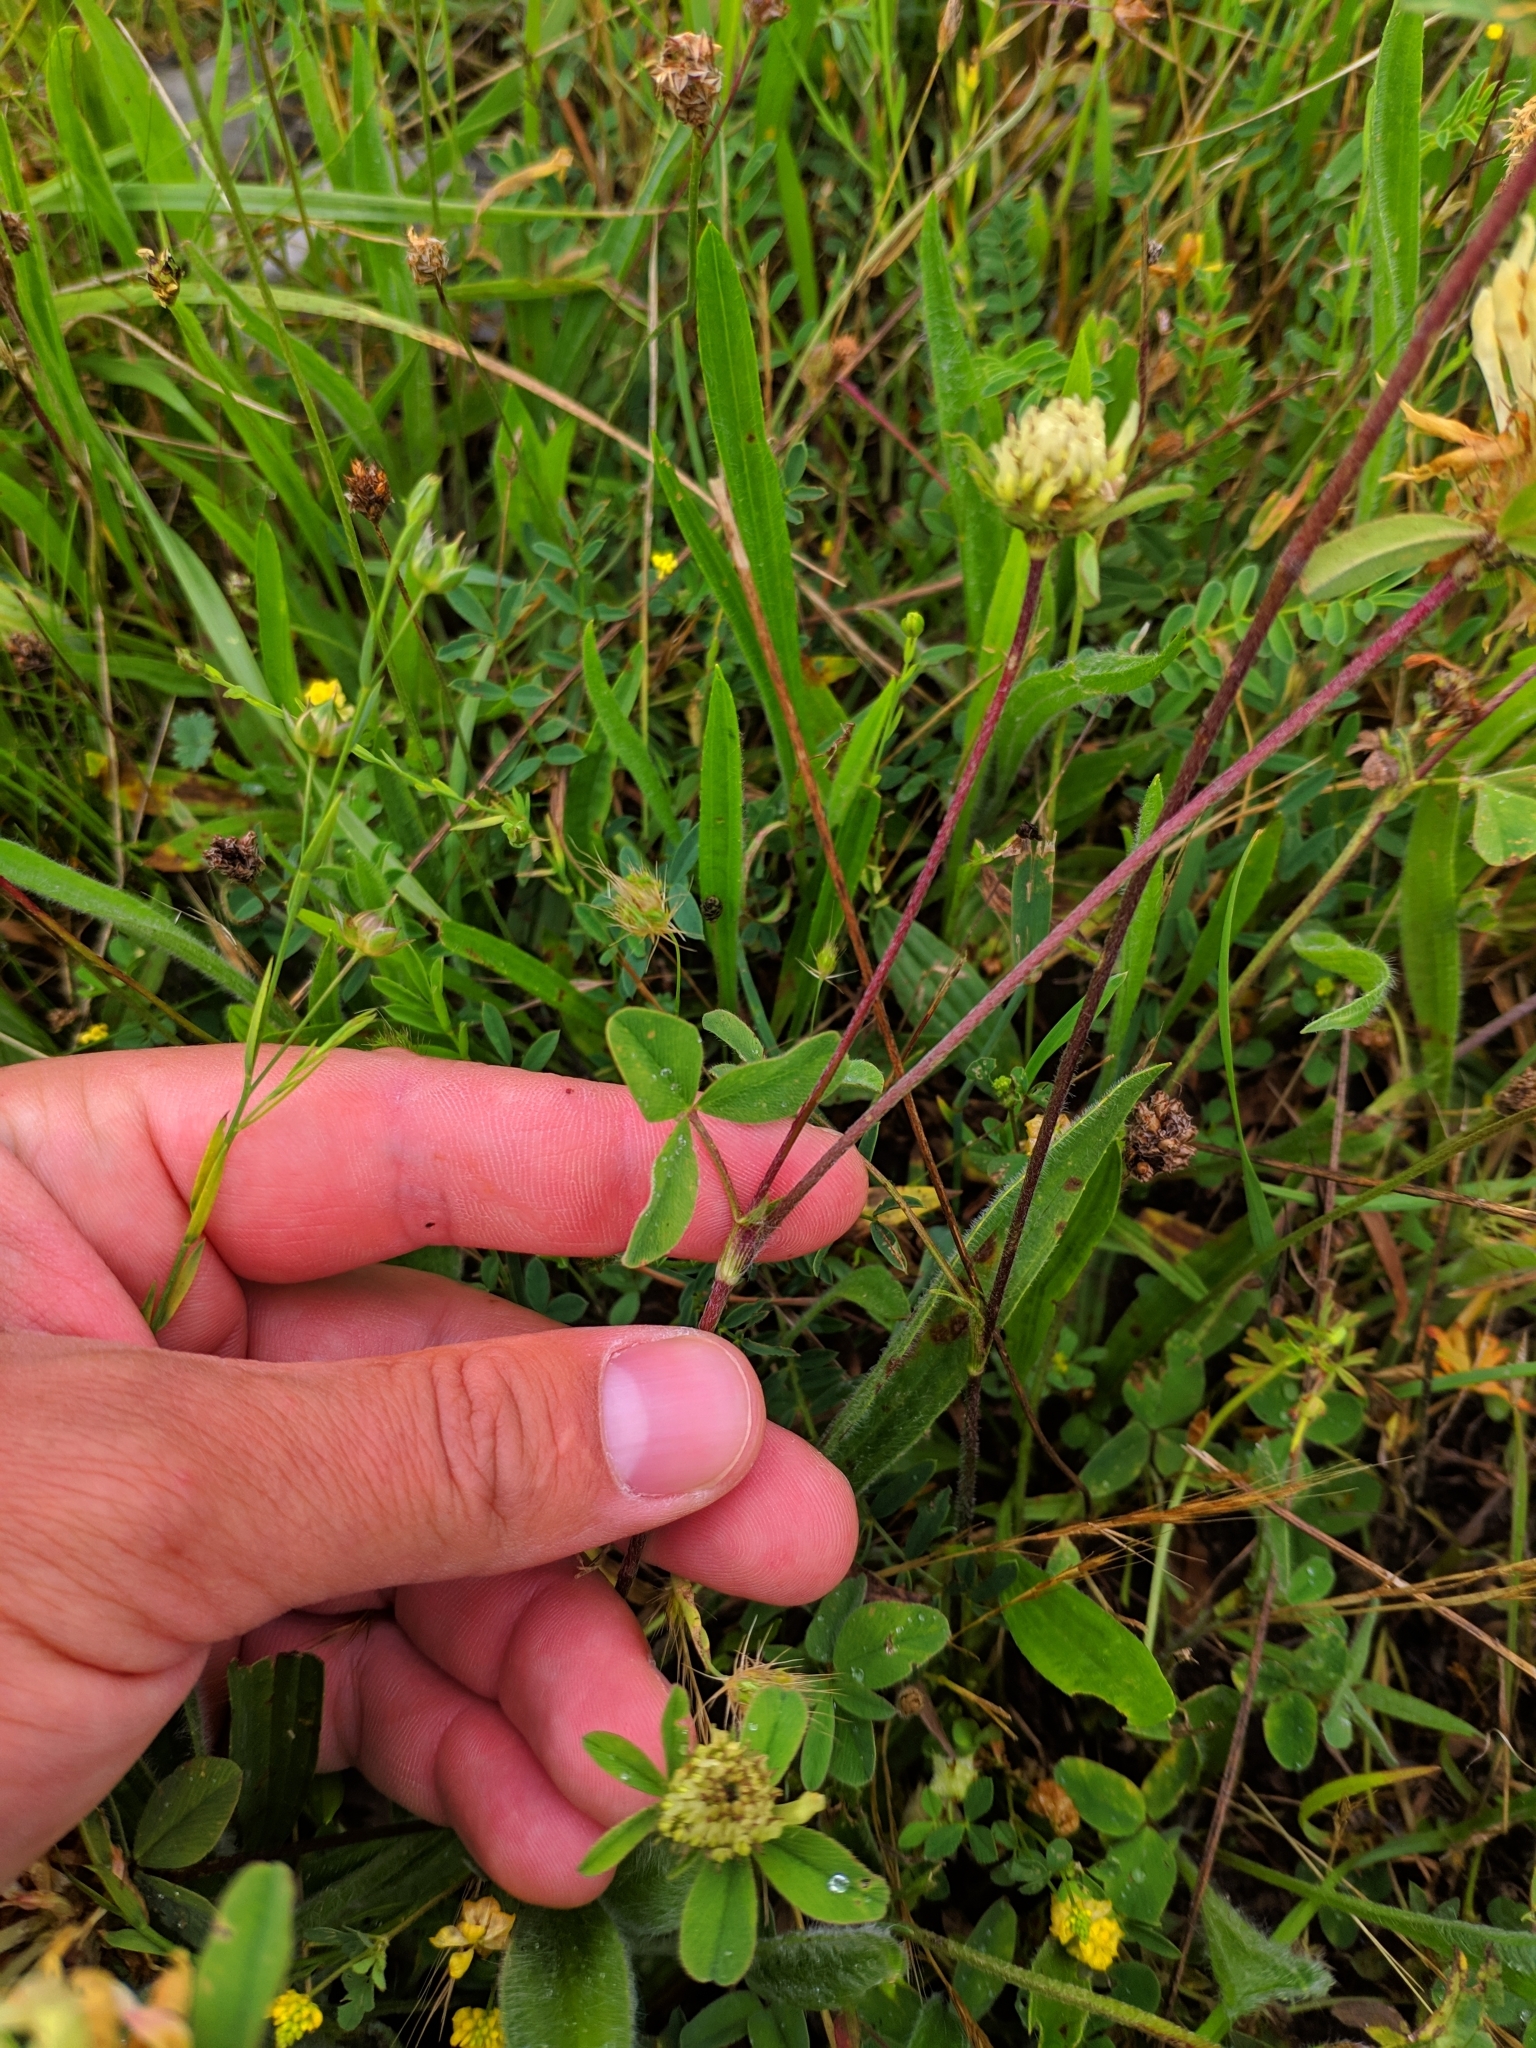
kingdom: Plantae
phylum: Tracheophyta
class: Magnoliopsida
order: Fabales
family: Fabaceae
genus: Trifolium
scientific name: Trifolium ochroleucon
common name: Sulphur clover
